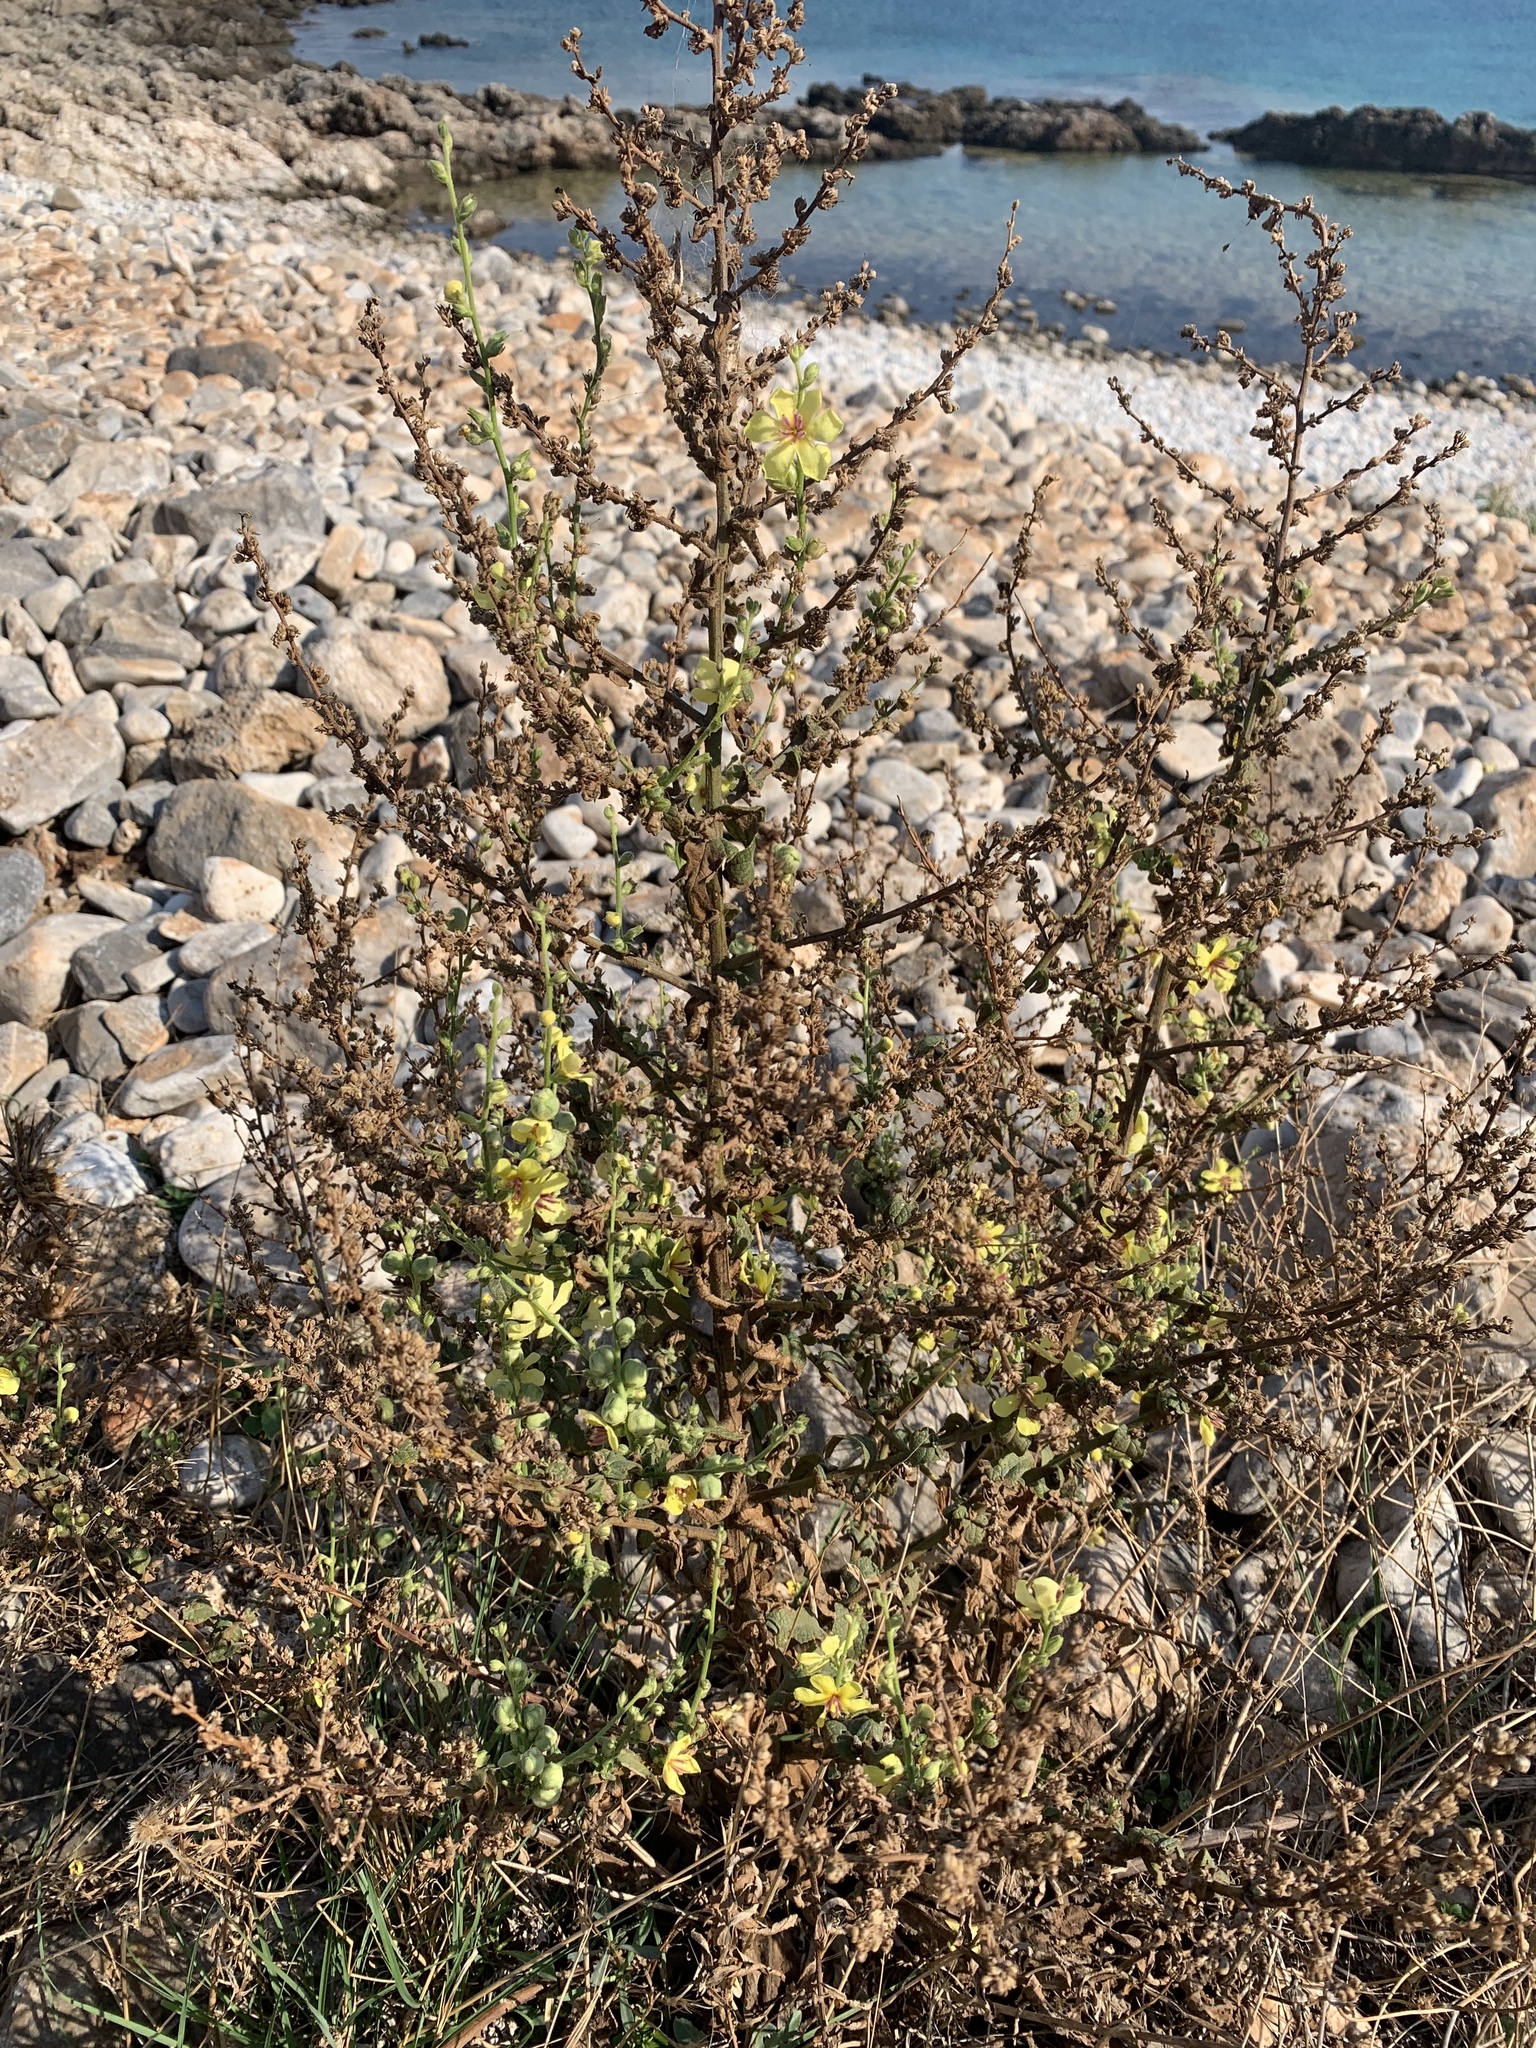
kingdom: Plantae
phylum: Tracheophyta
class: Magnoliopsida
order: Lamiales
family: Scrophulariaceae
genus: Verbascum
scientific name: Verbascum sinuatum
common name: Wavyleaf mullein
